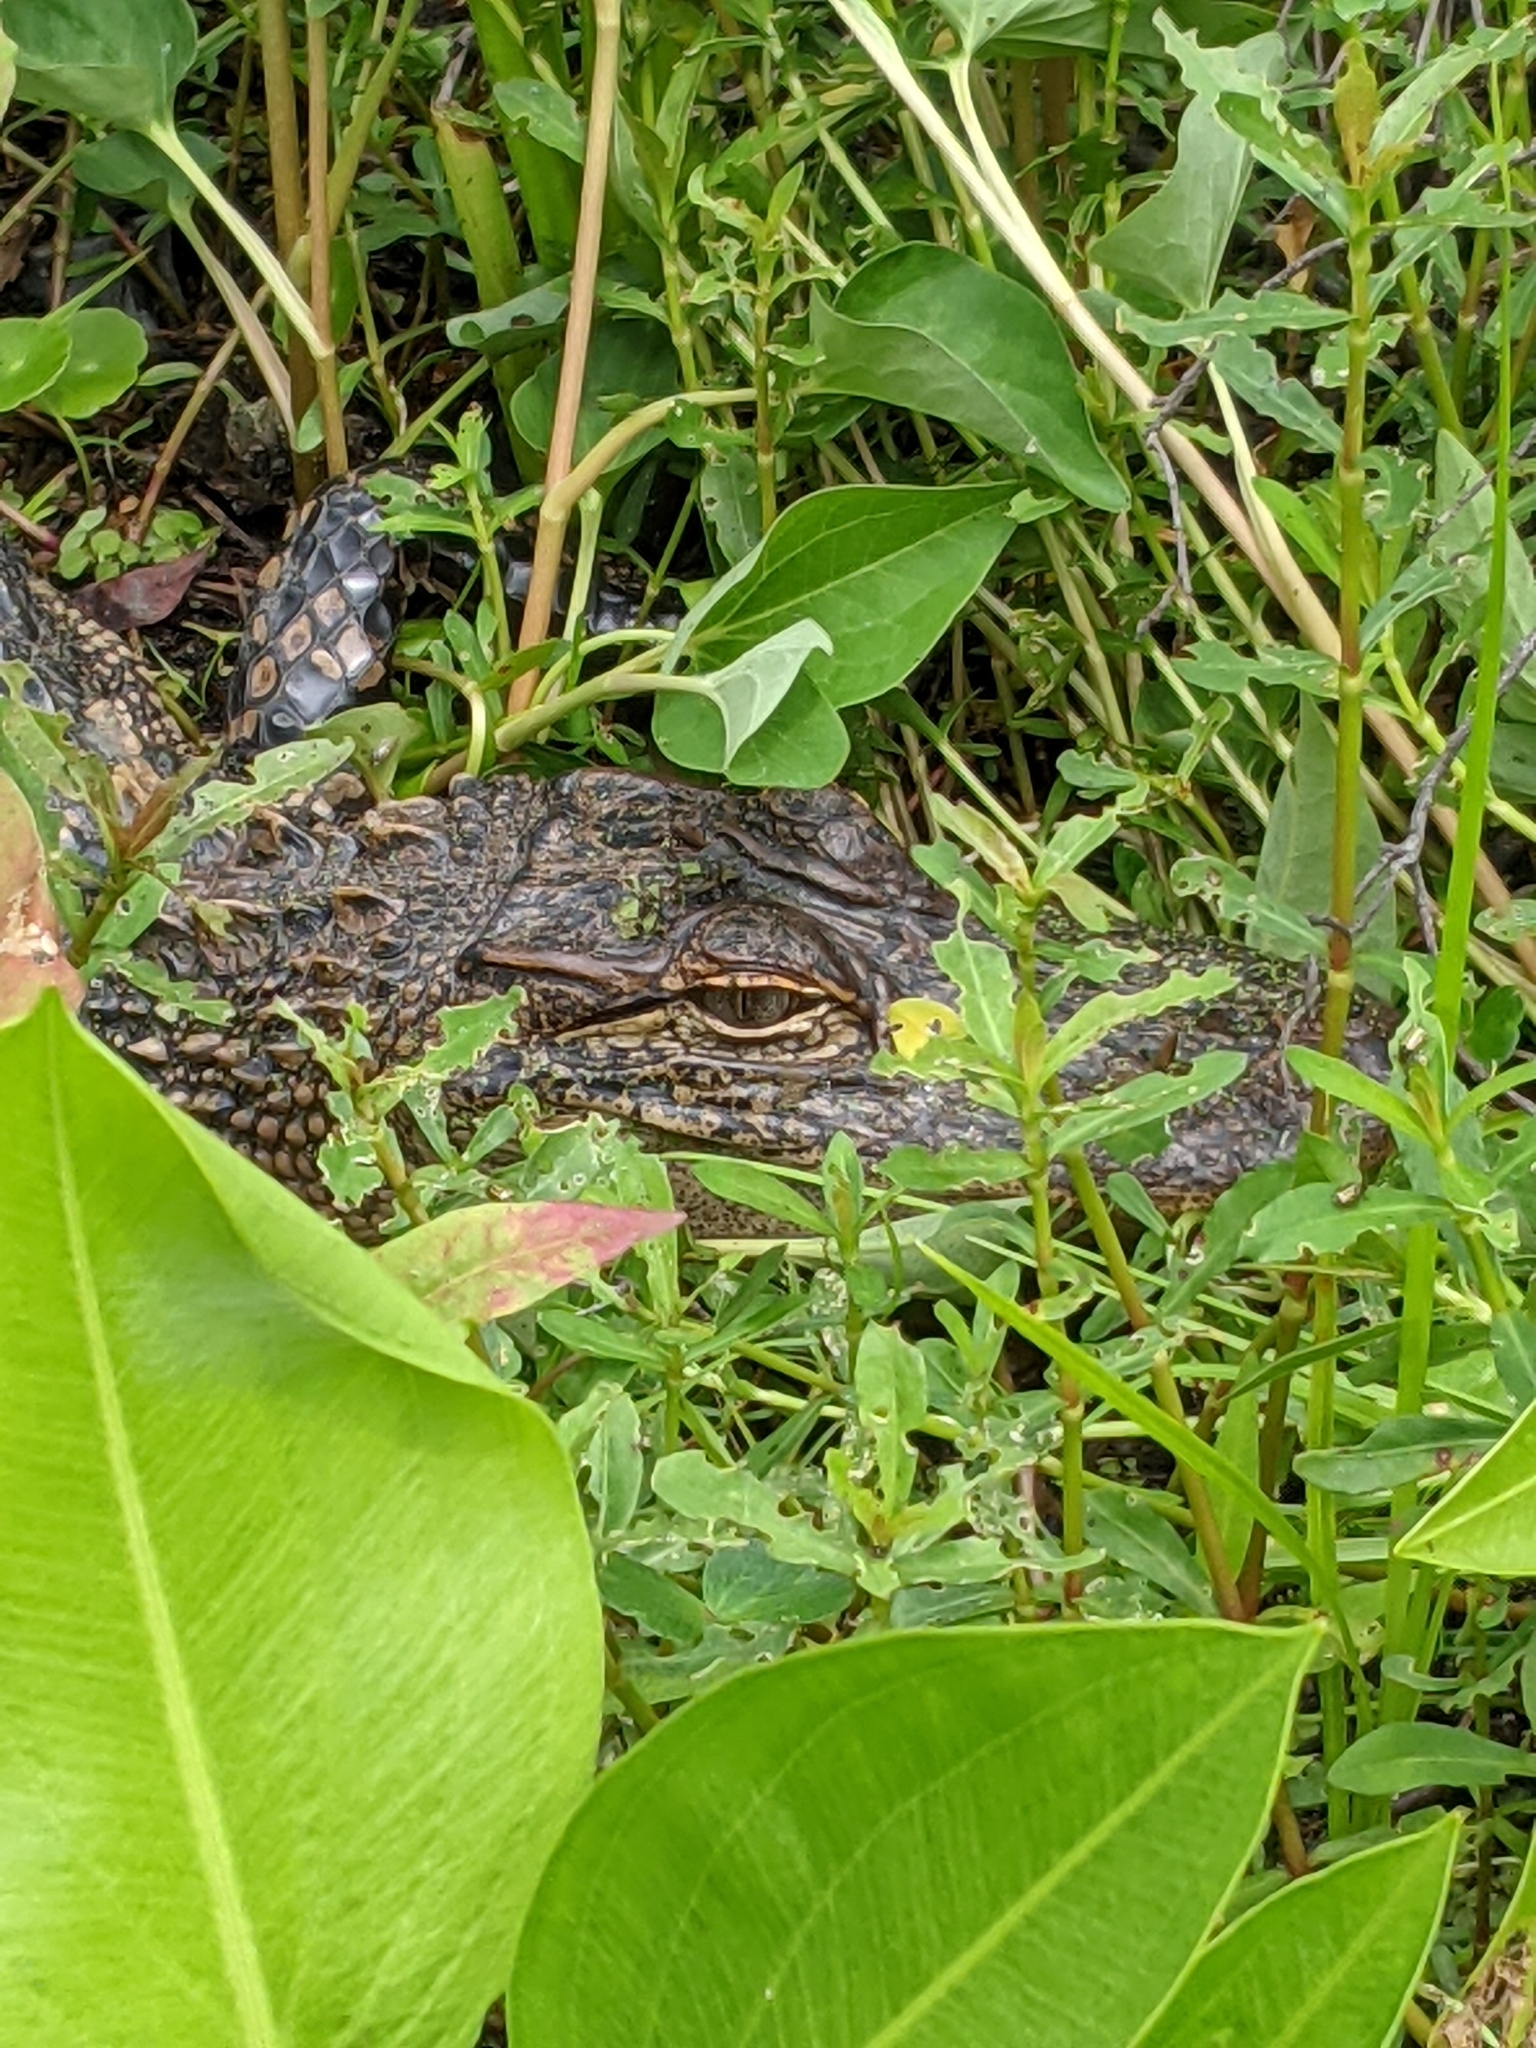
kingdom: Animalia
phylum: Chordata
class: Crocodylia
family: Alligatoridae
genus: Alligator
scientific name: Alligator mississippiensis
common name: American alligator
